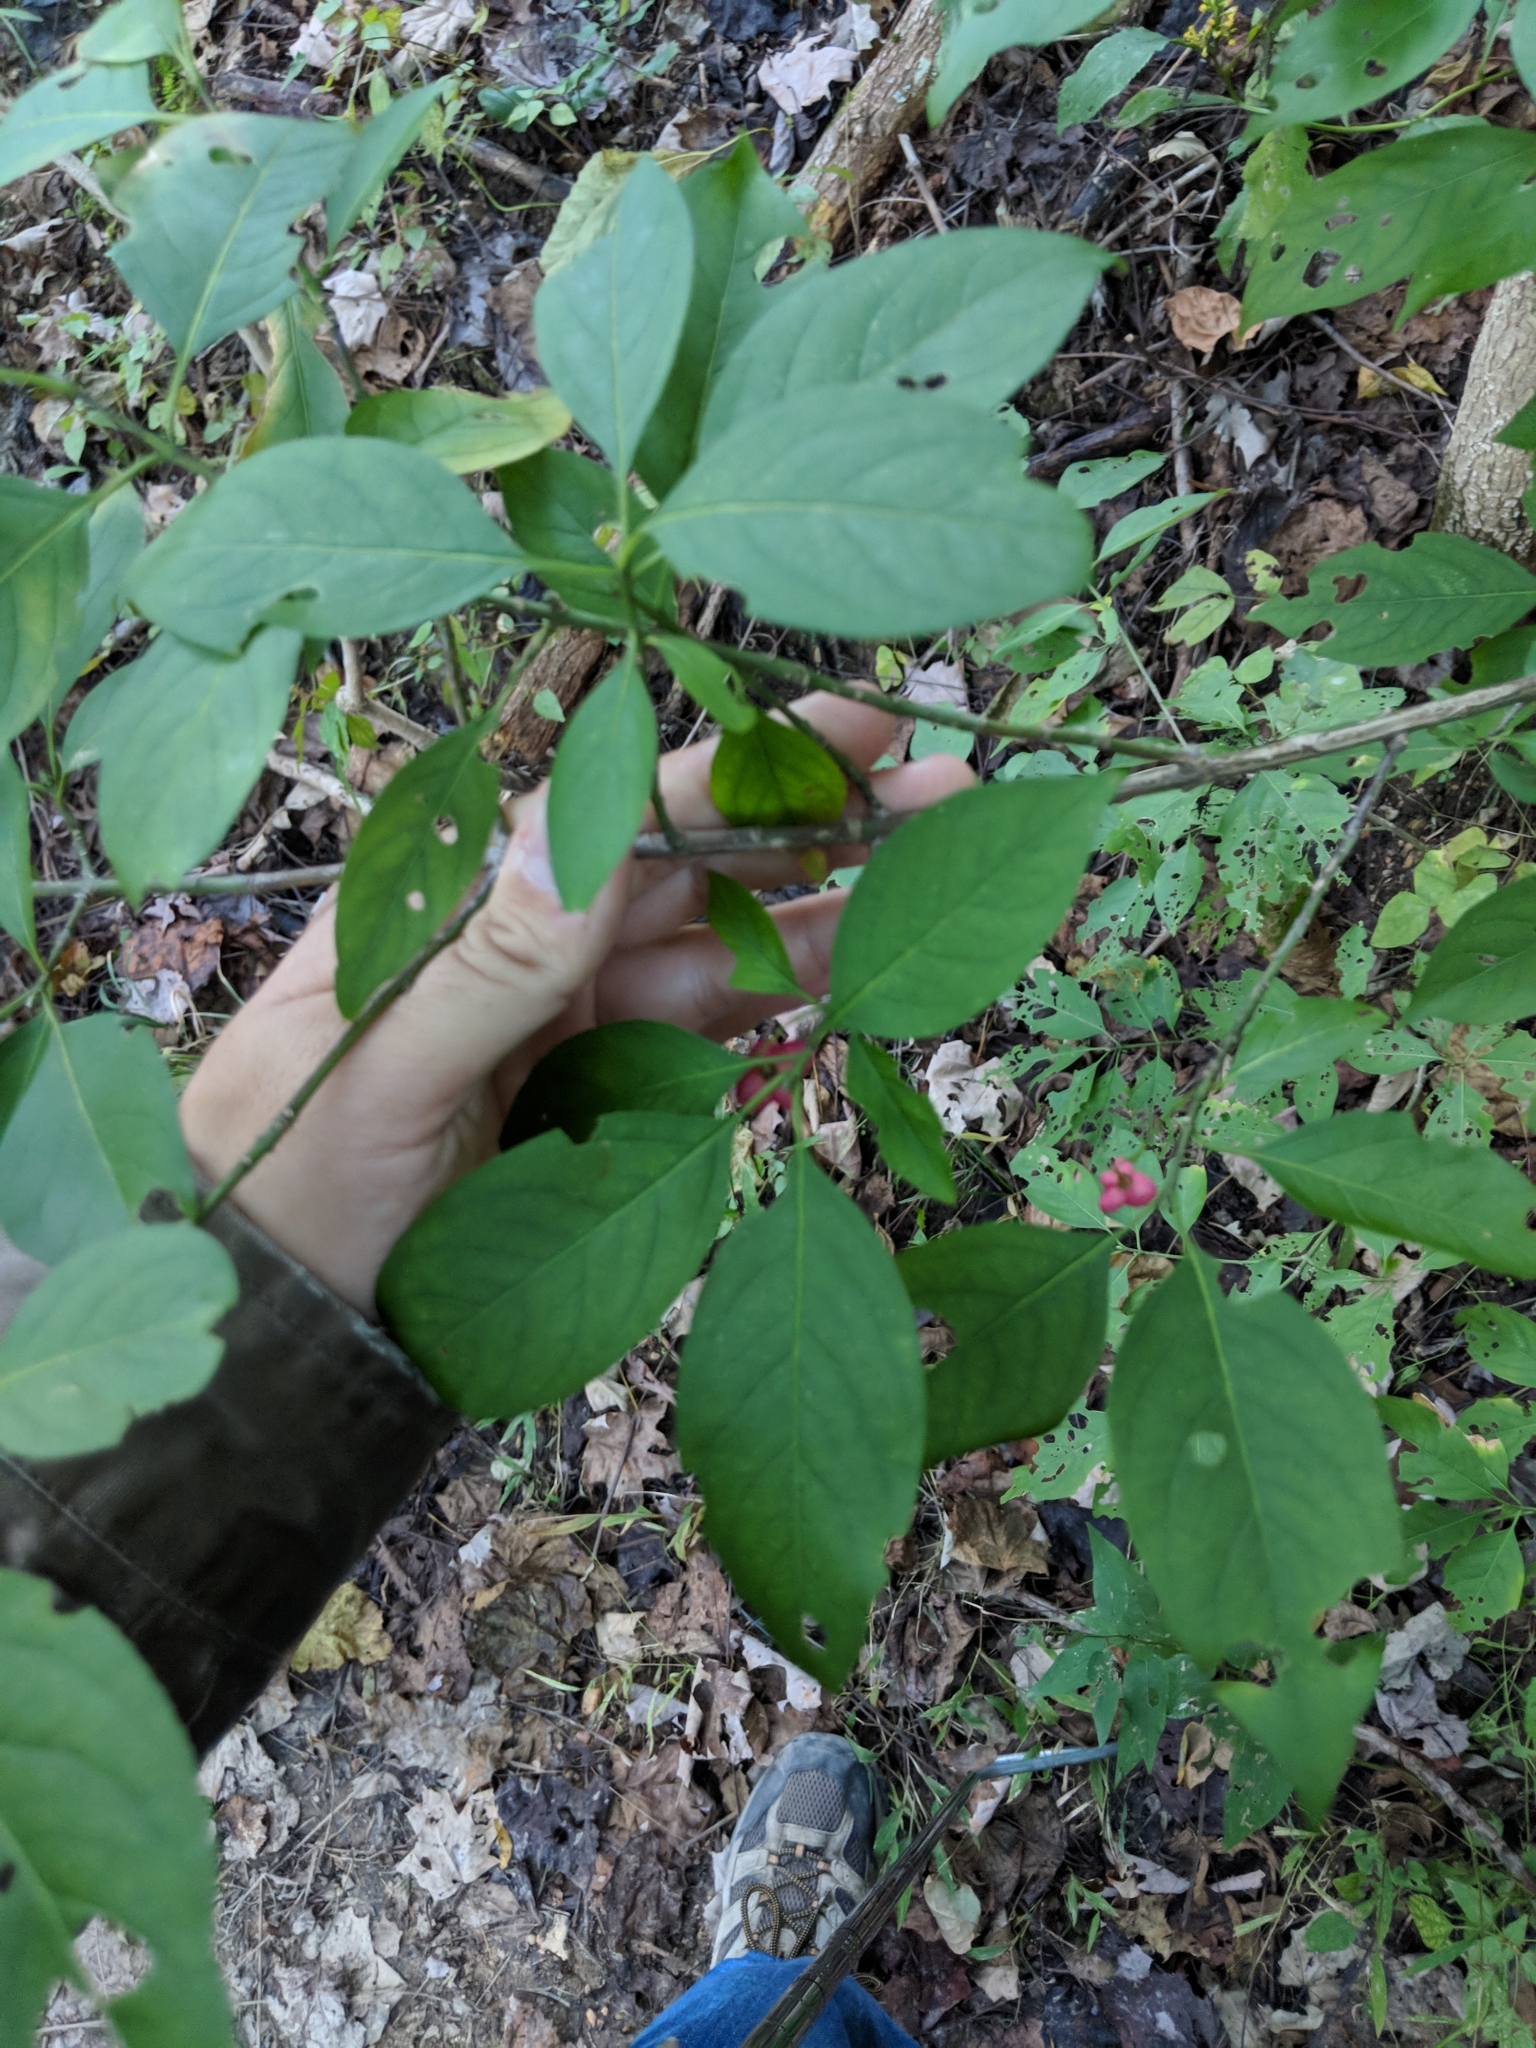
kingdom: Plantae
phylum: Tracheophyta
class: Magnoliopsida
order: Celastrales
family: Celastraceae
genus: Euonymus
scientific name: Euonymus atropurpureus
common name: Eastern wahoo
